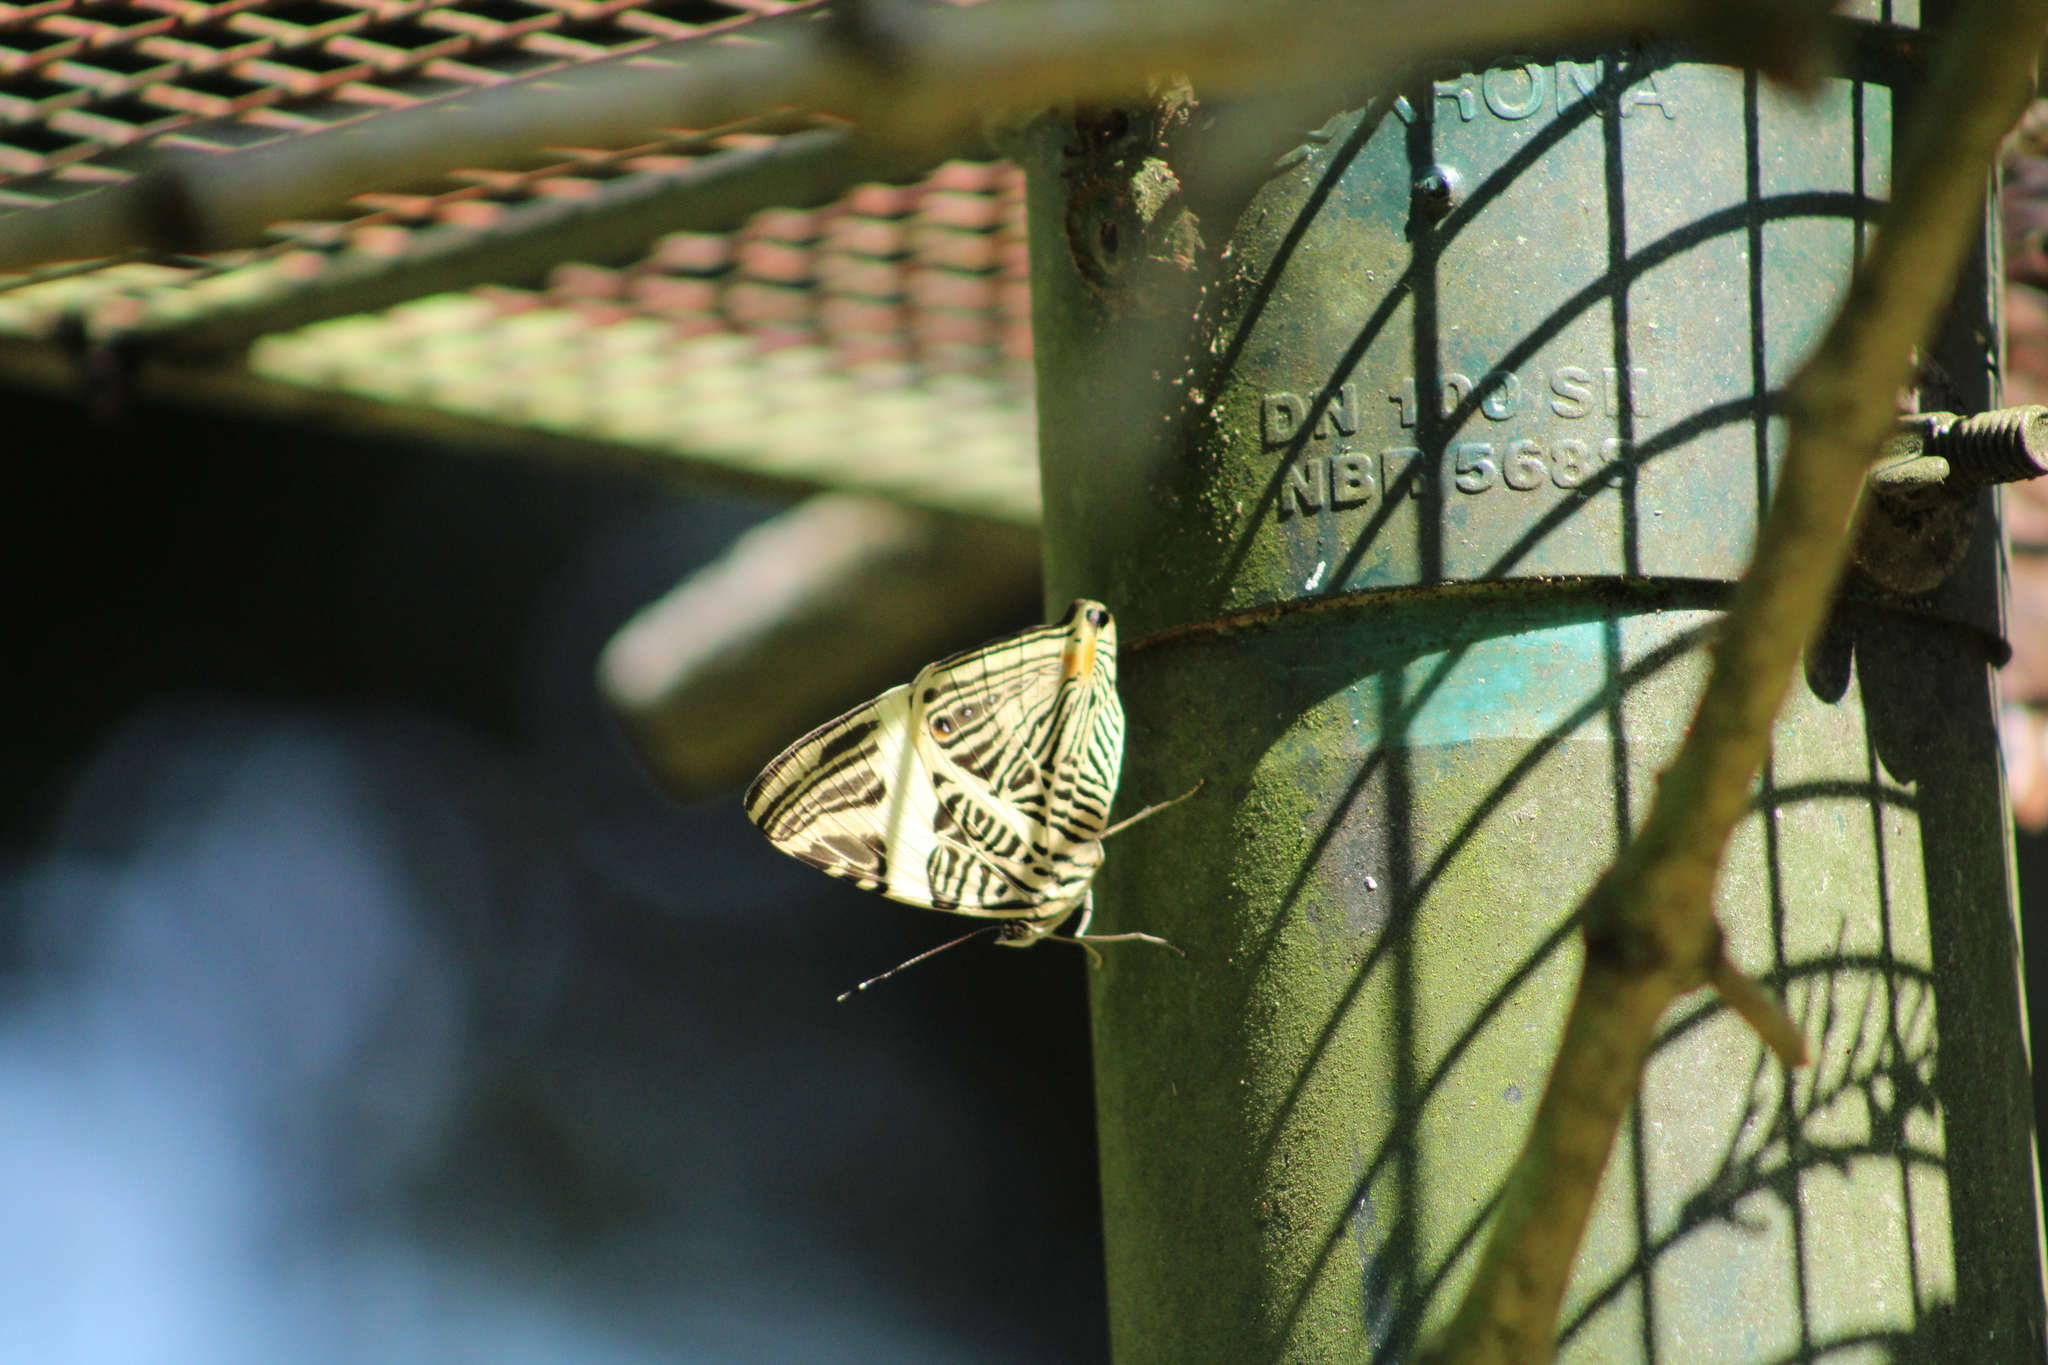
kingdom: Animalia
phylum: Arthropoda
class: Insecta
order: Lepidoptera
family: Nymphalidae
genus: Colobura
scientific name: Colobura dirce
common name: Dirce beauty
